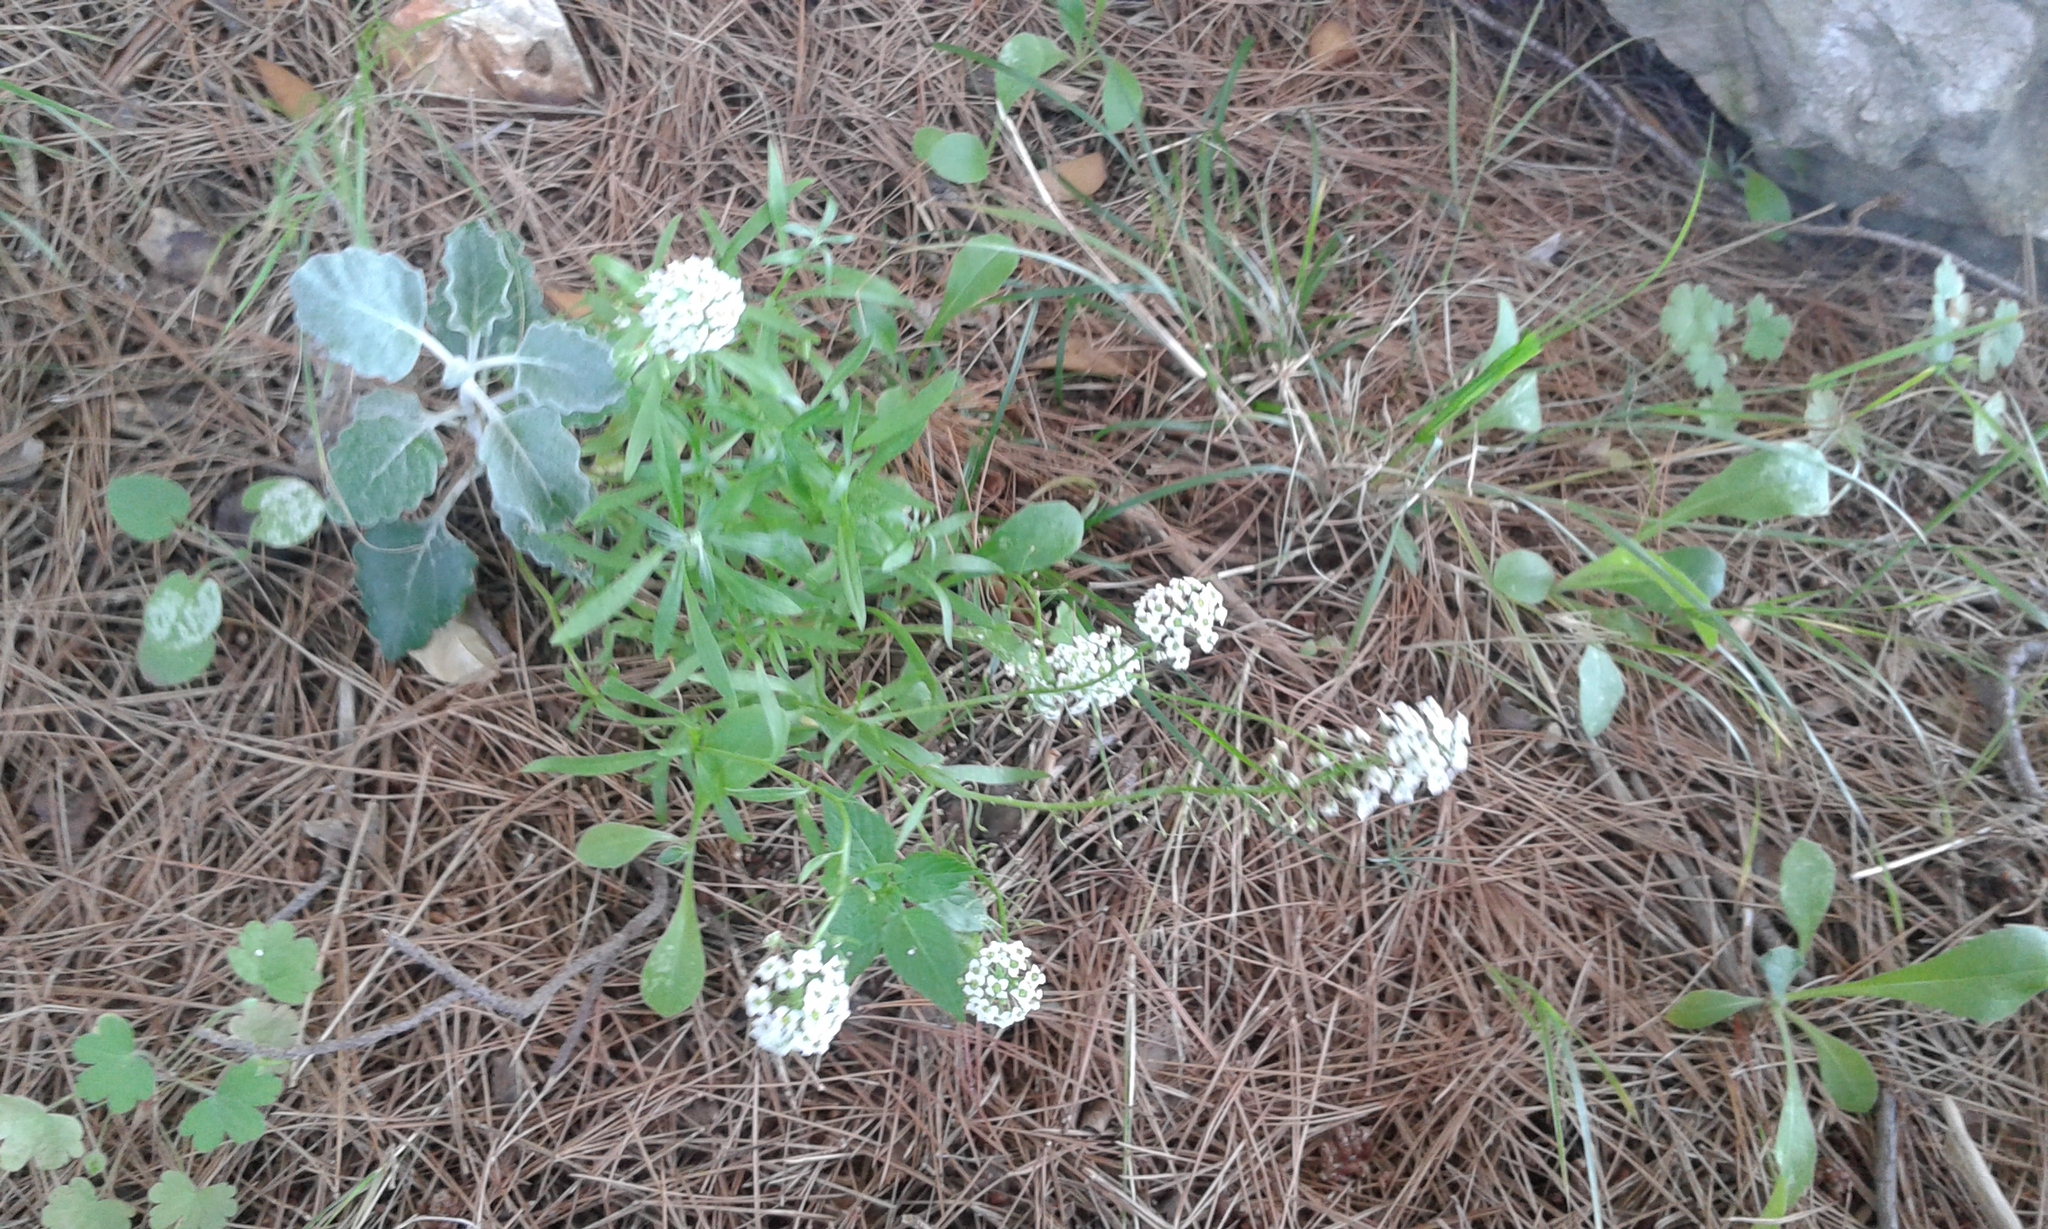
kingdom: Plantae
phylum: Tracheophyta
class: Magnoliopsida
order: Brassicales
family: Brassicaceae
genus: Lobularia
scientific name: Lobularia maritima
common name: Sweet alison
